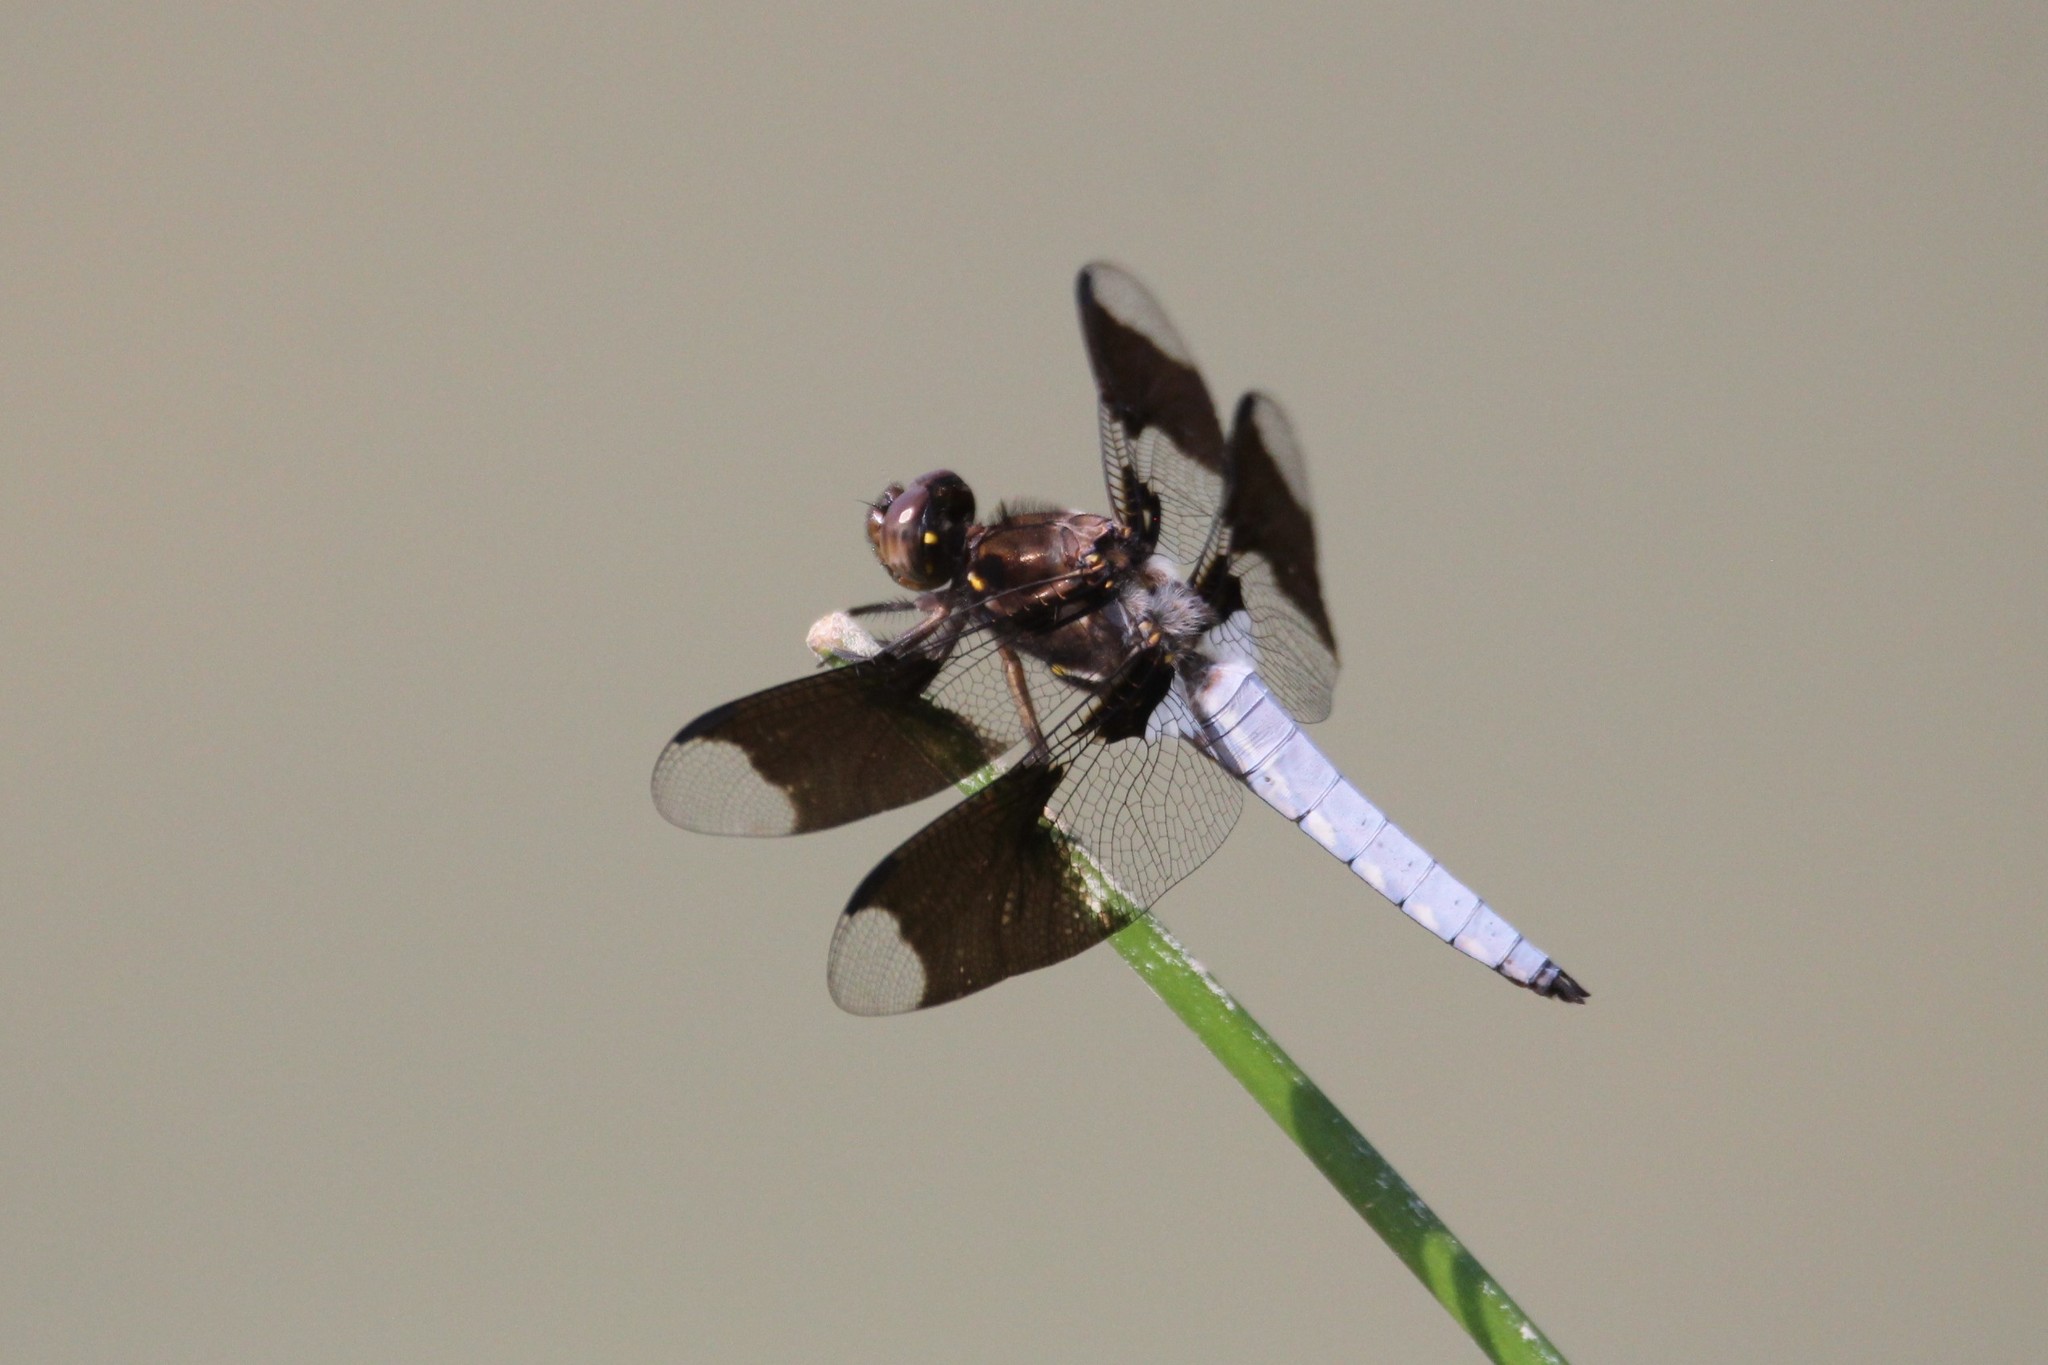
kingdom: Animalia
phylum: Arthropoda
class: Insecta
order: Odonata
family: Libellulidae
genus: Plathemis
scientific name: Plathemis lydia
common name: Common whitetail
